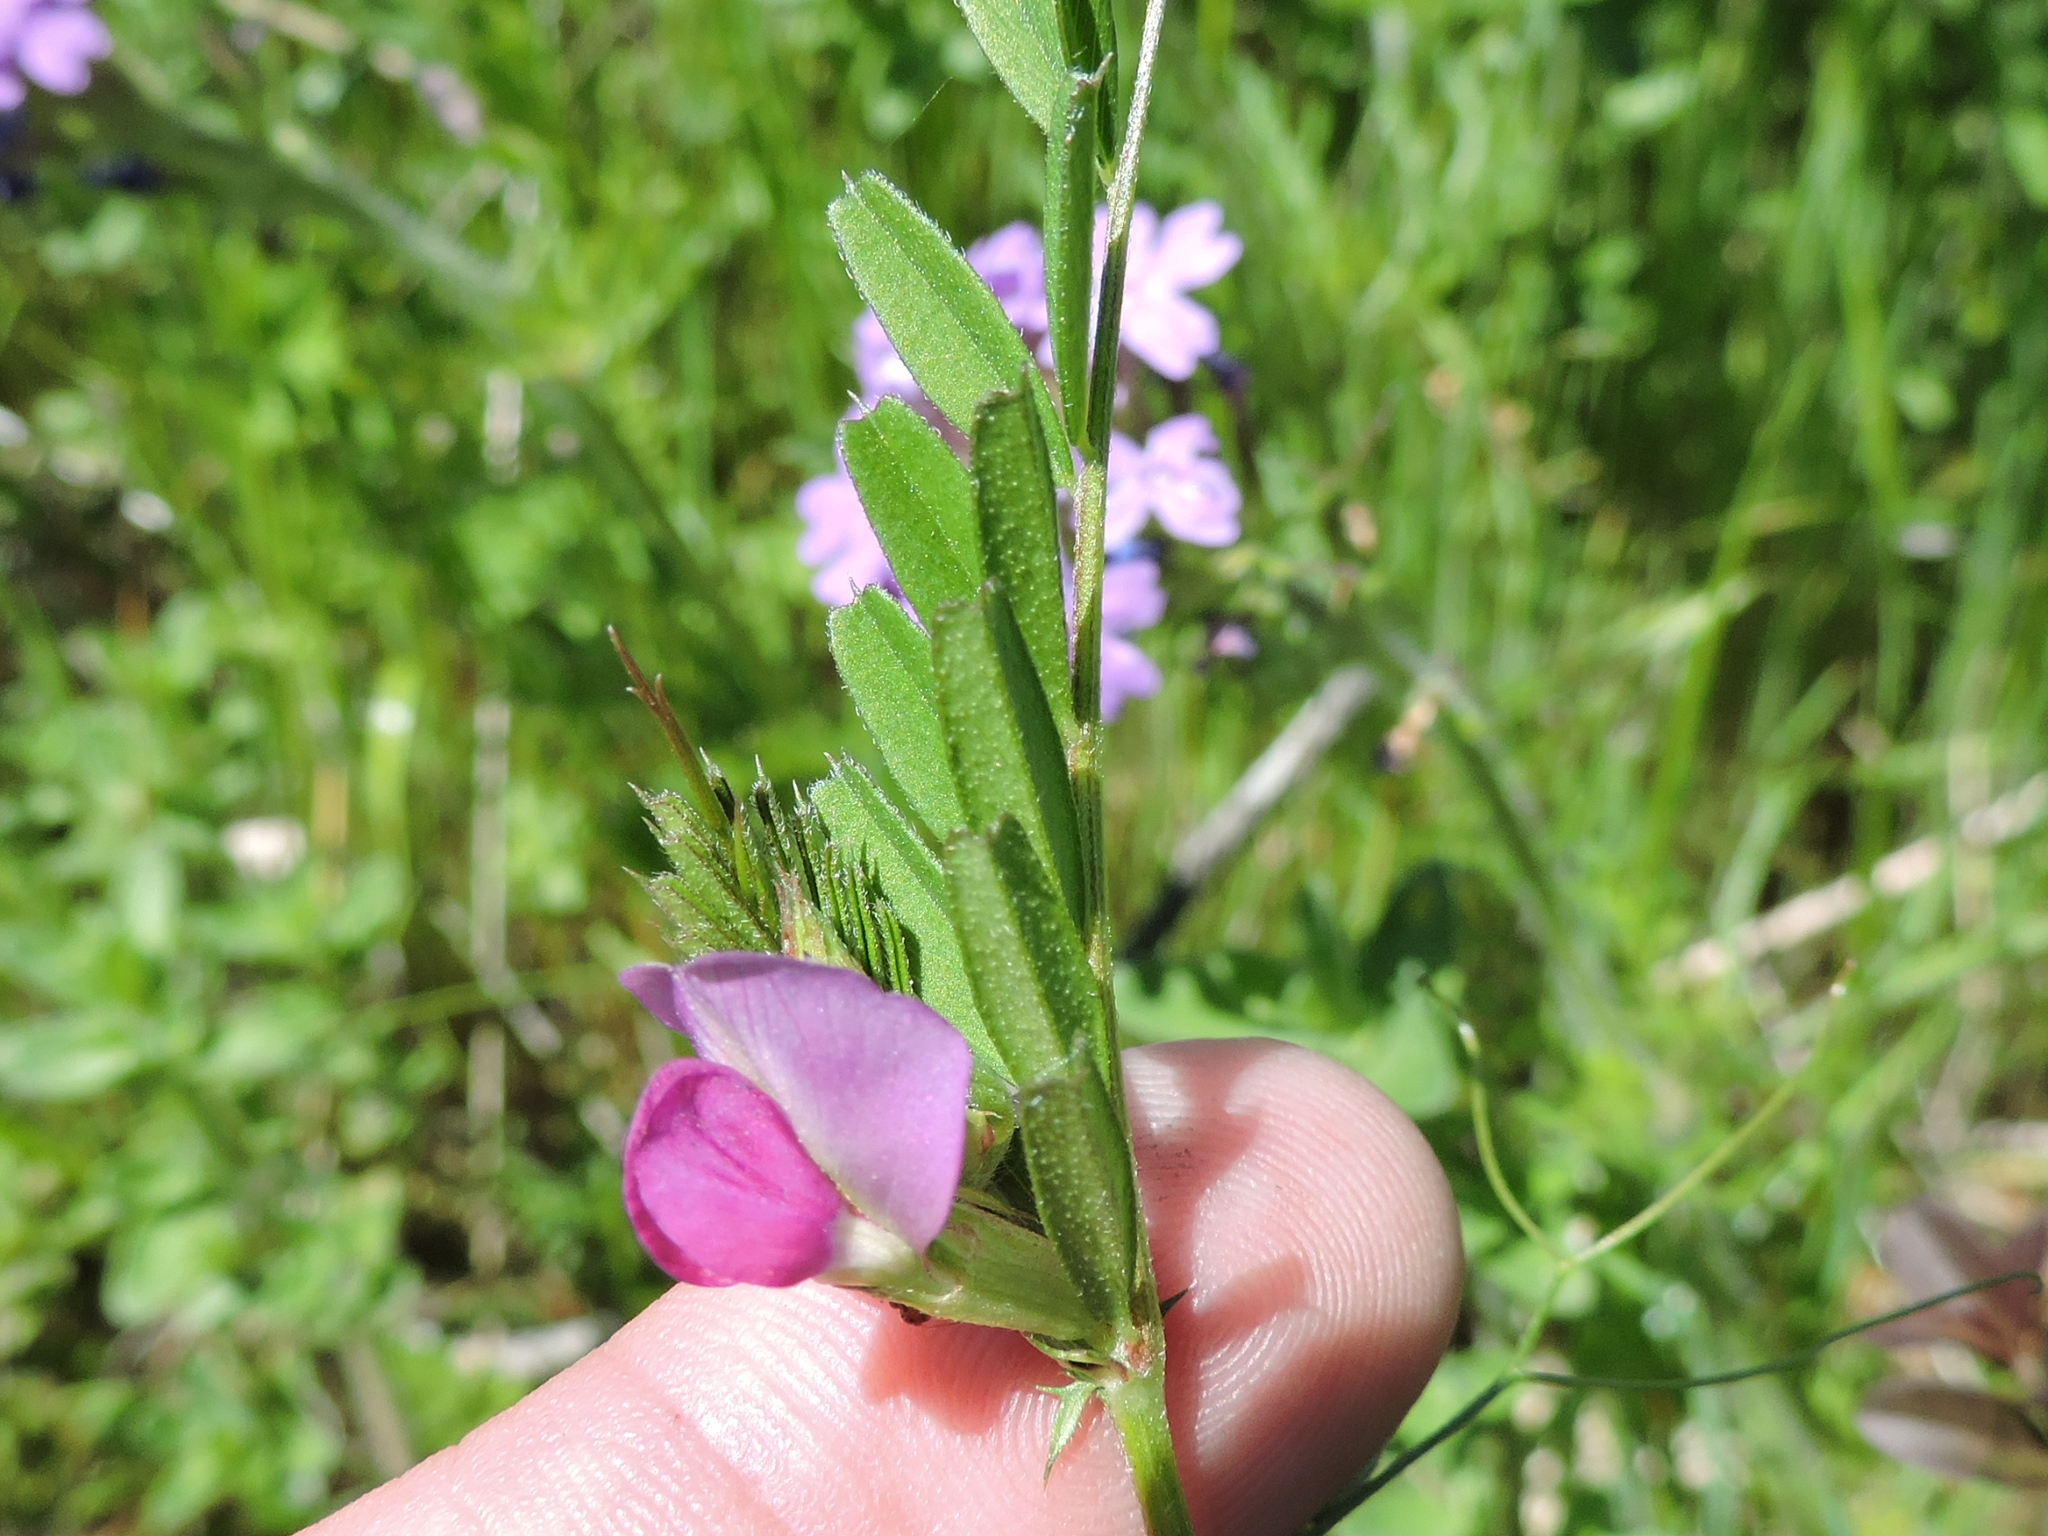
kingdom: Plantae
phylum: Tracheophyta
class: Magnoliopsida
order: Fabales
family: Fabaceae
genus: Vicia
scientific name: Vicia sativa
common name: Garden vetch
